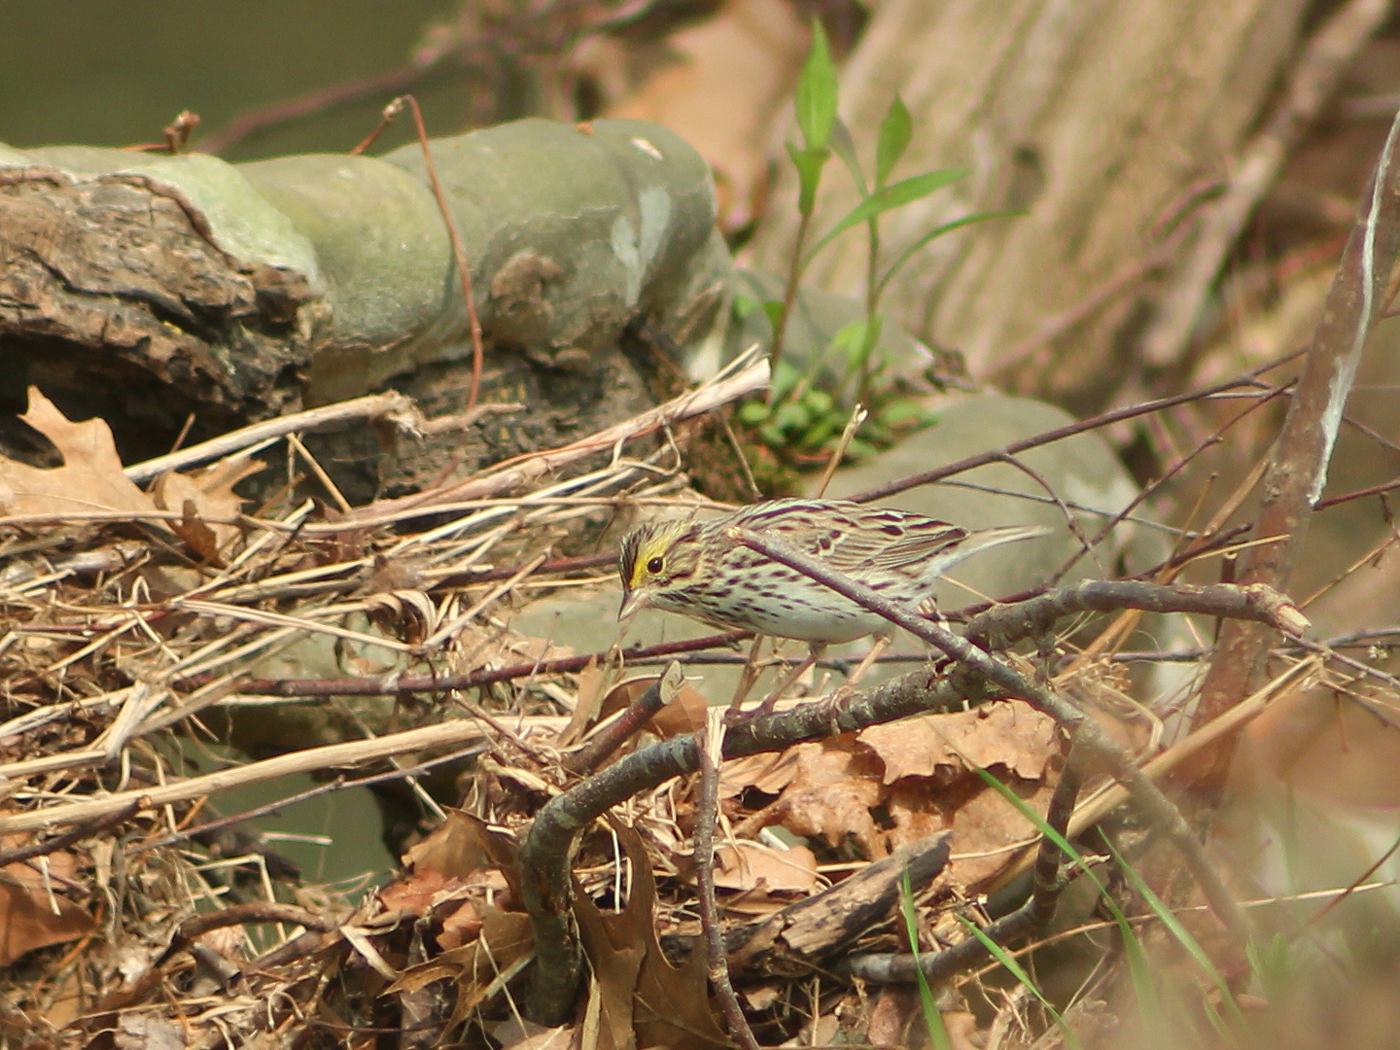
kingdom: Animalia
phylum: Chordata
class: Aves
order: Passeriformes
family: Passerellidae
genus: Passerculus
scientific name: Passerculus sandwichensis
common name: Savannah sparrow
